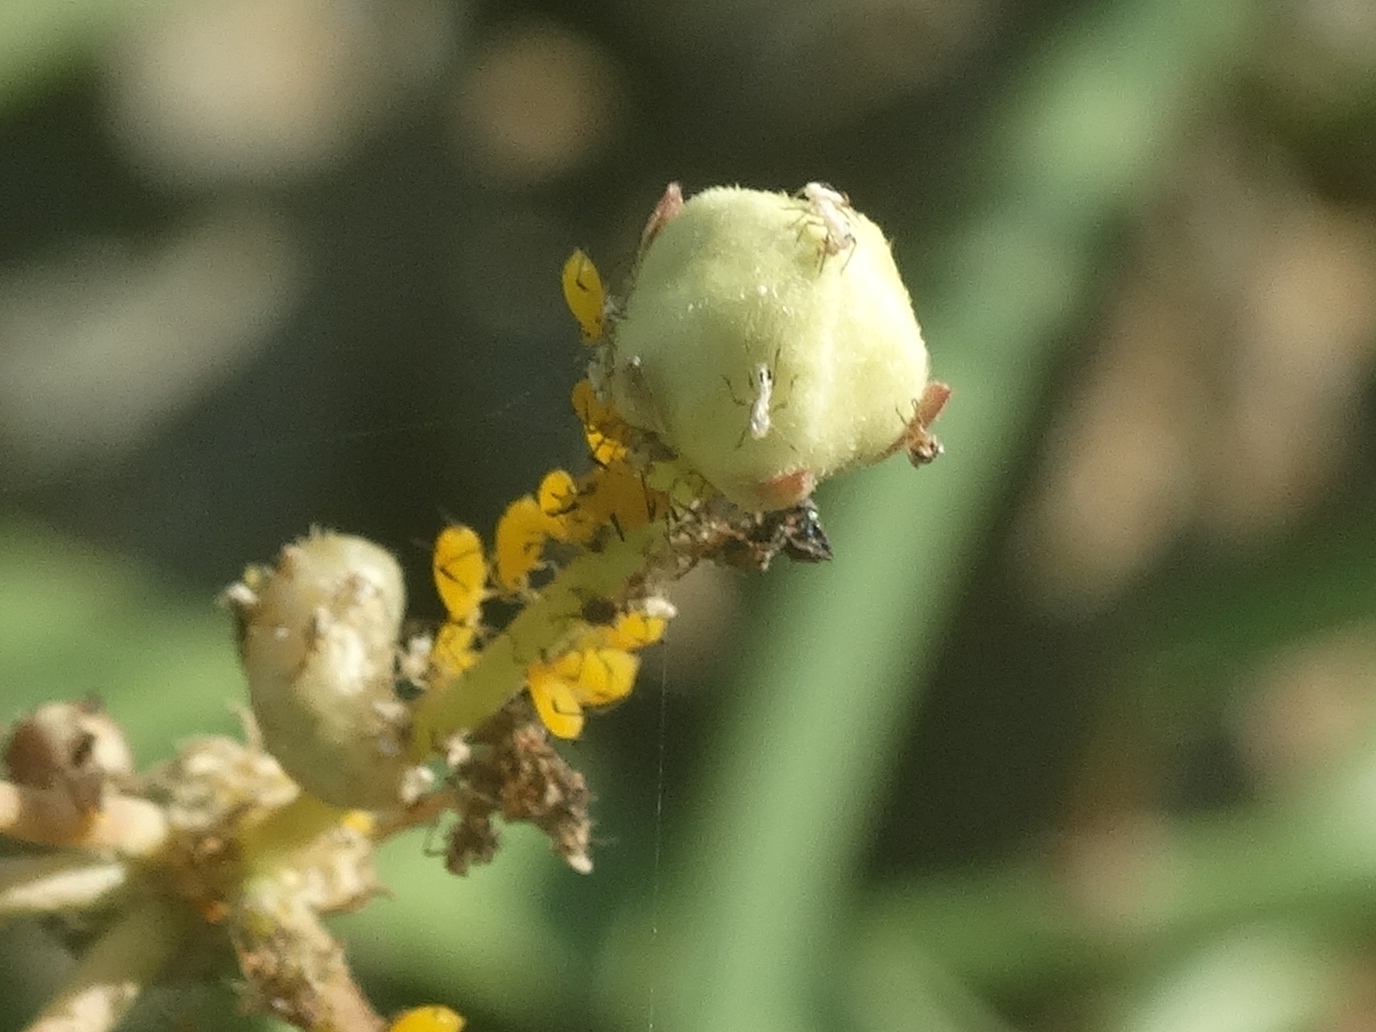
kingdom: Animalia
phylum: Arthropoda
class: Insecta
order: Hemiptera
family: Aphididae
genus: Aphis
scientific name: Aphis nerii
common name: Oleander aphid
